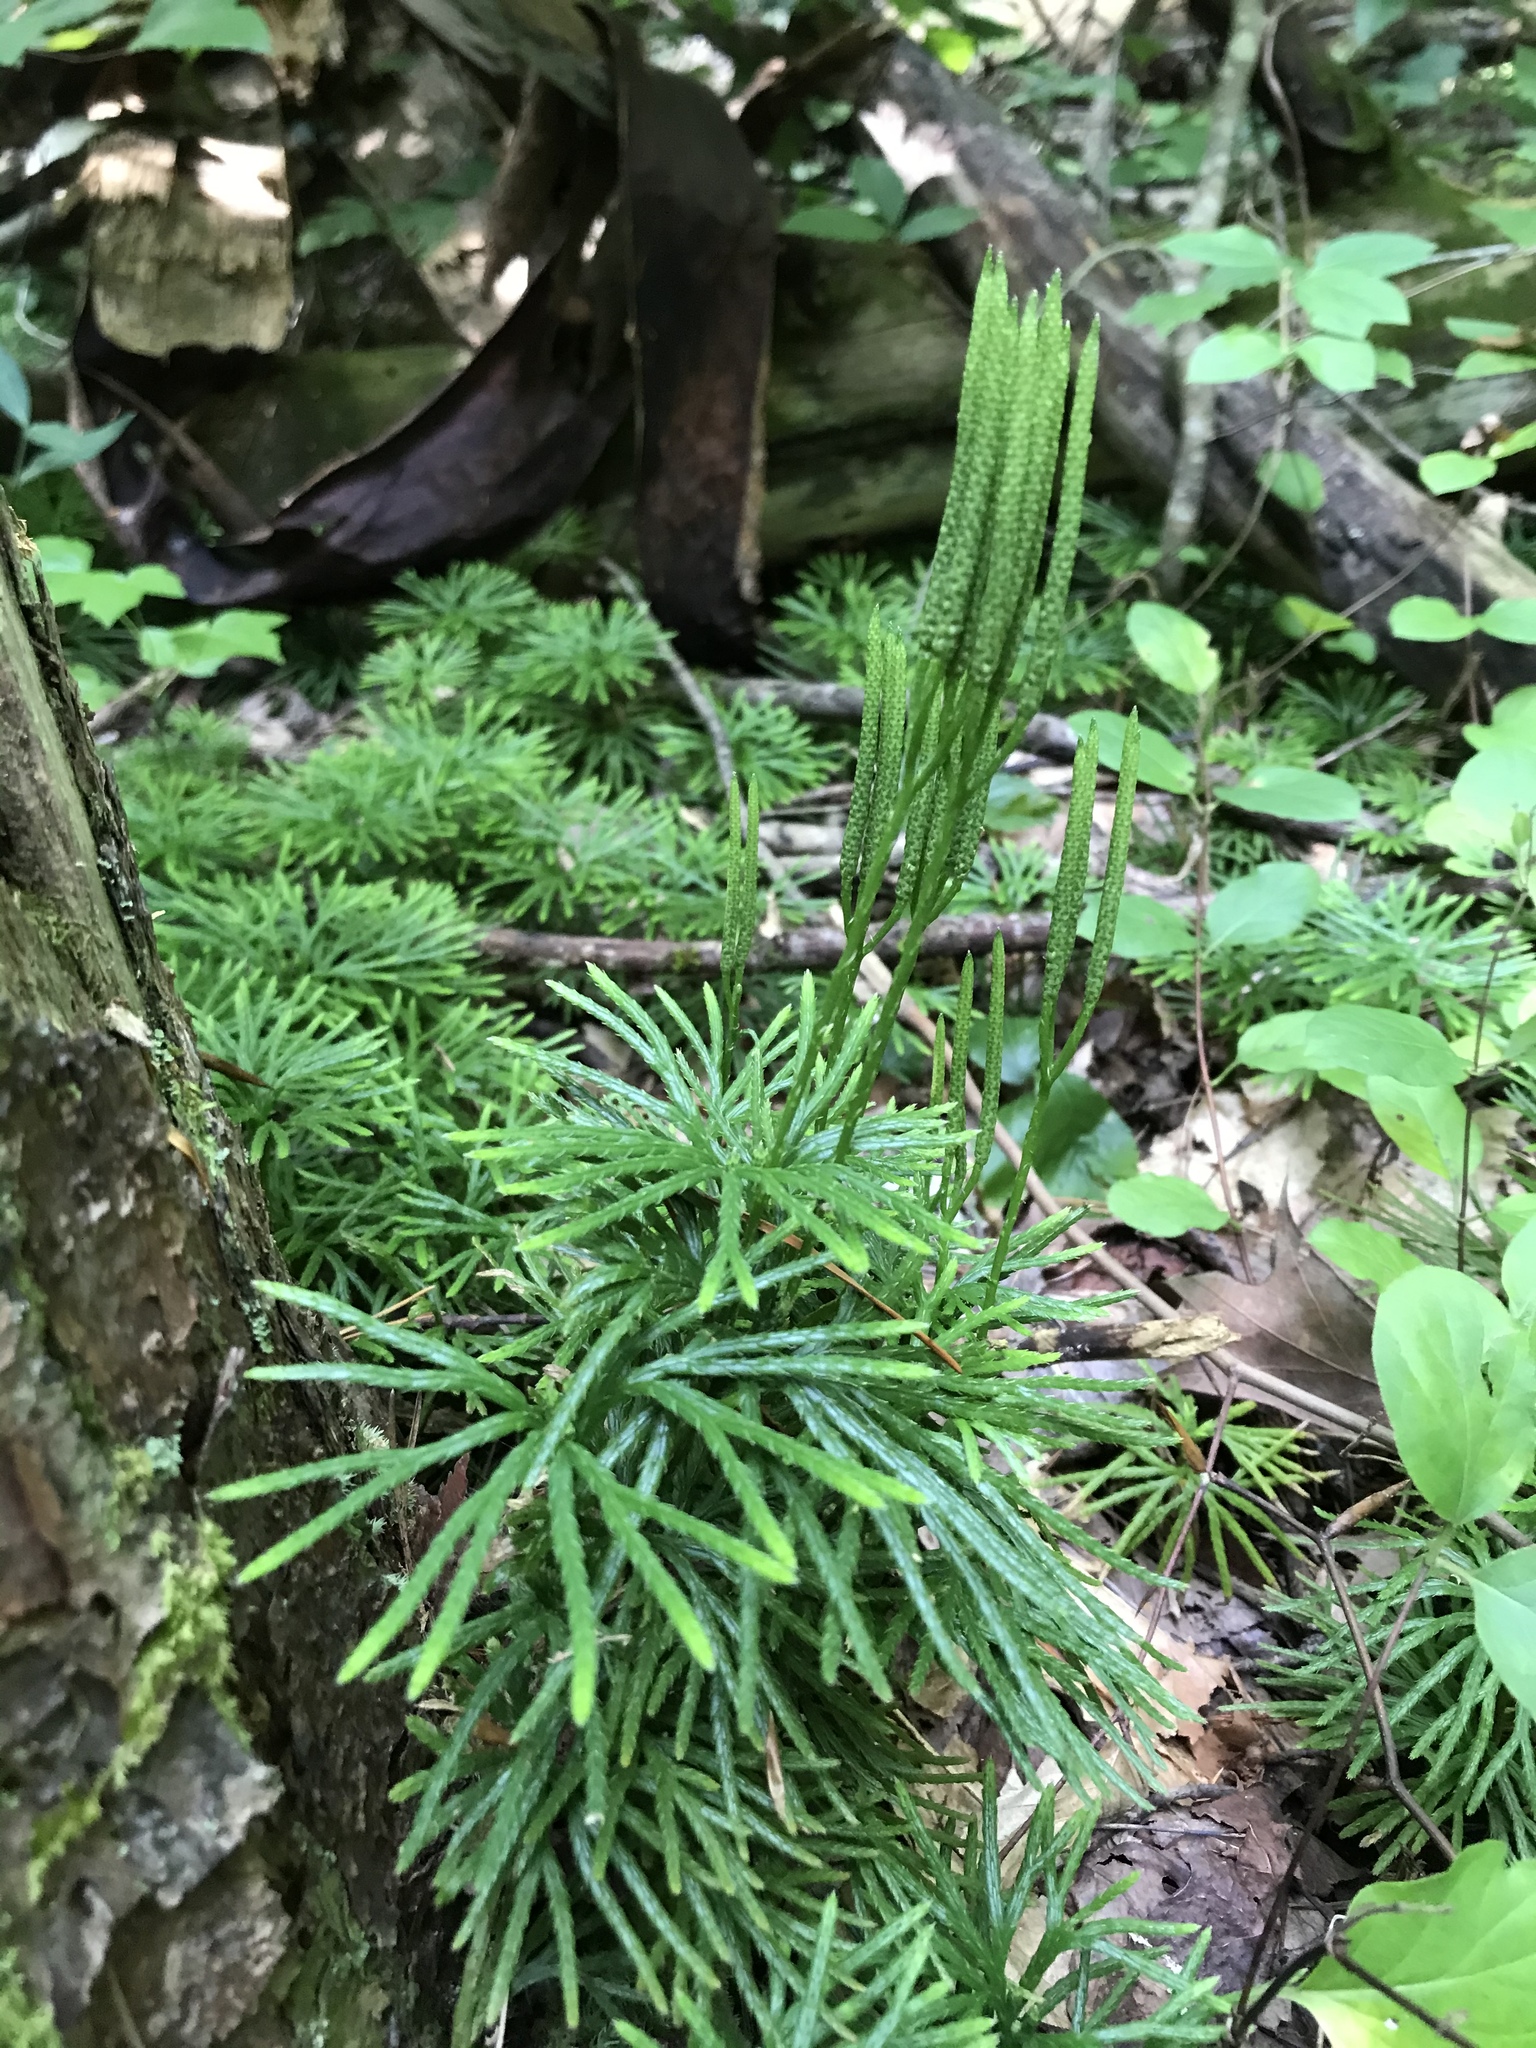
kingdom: Plantae
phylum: Tracheophyta
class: Lycopodiopsida
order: Lycopodiales
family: Lycopodiaceae
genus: Diphasiastrum
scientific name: Diphasiastrum digitatum
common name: Southern running-pine
